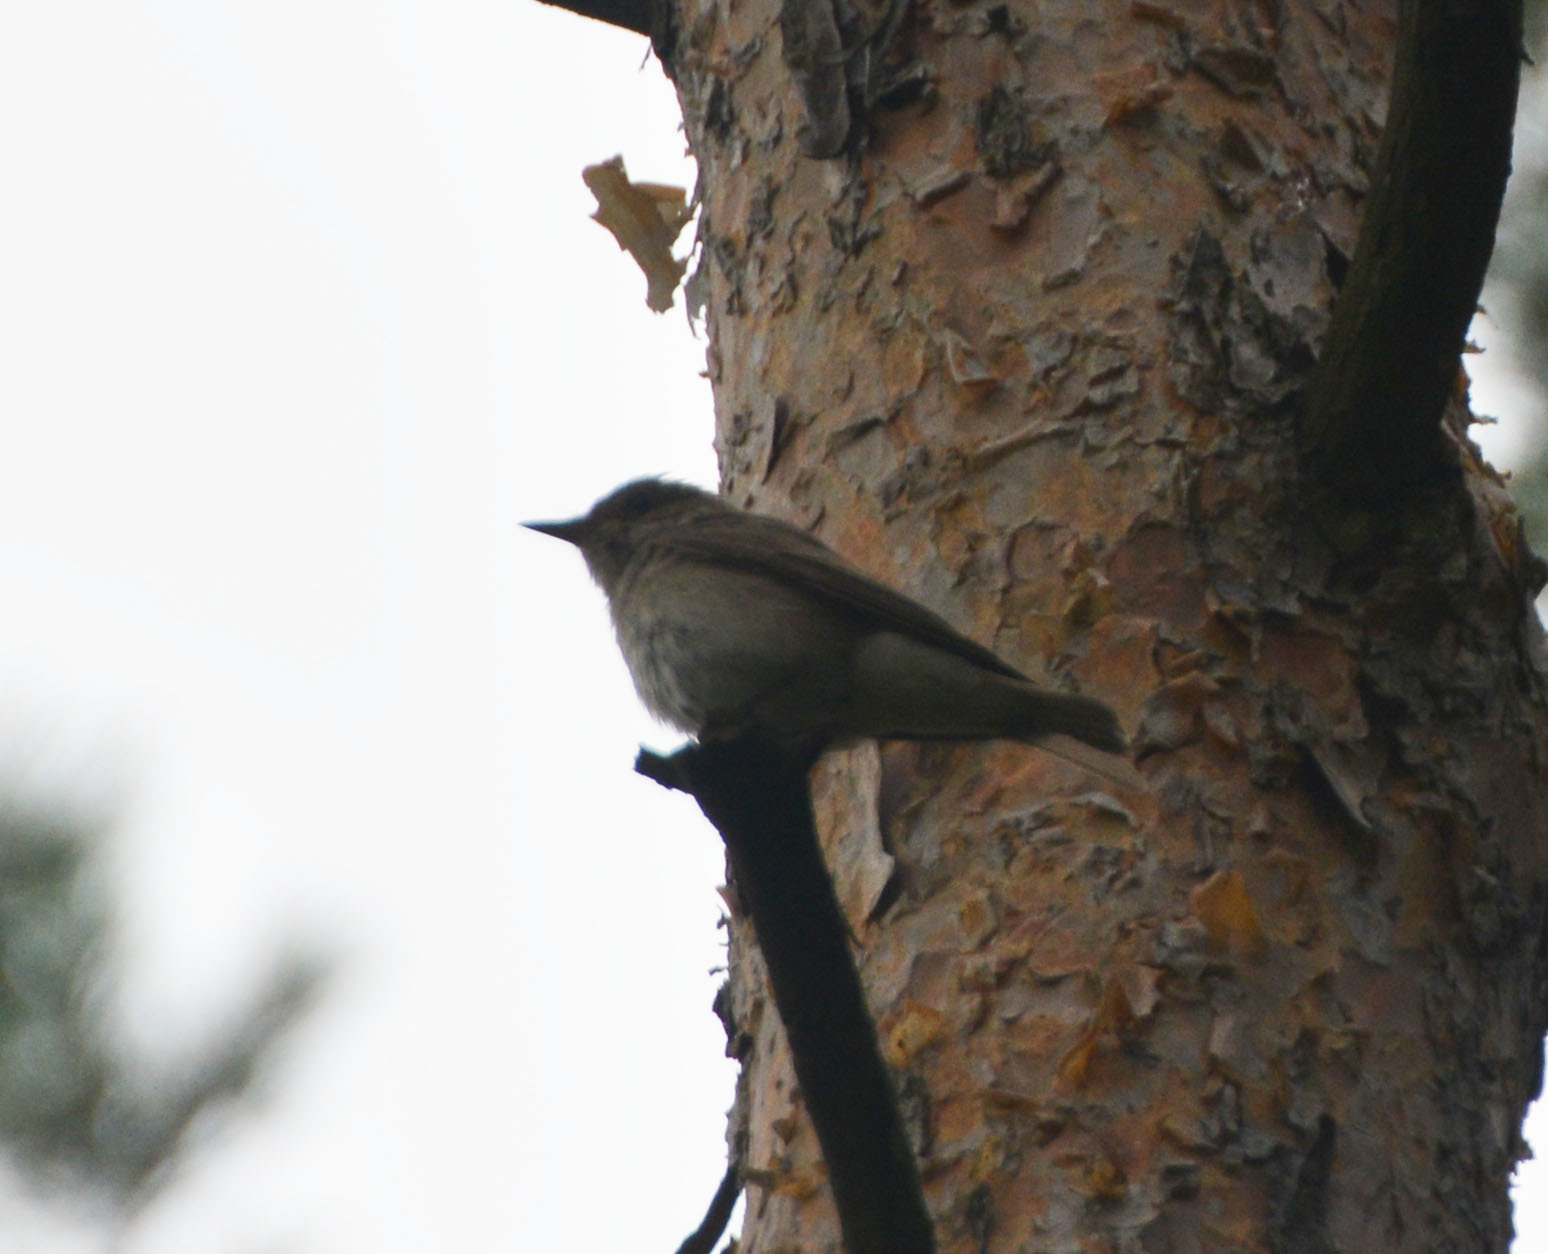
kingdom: Animalia
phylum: Chordata
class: Aves
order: Passeriformes
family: Muscicapidae
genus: Muscicapa
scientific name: Muscicapa striata
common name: Spotted flycatcher
